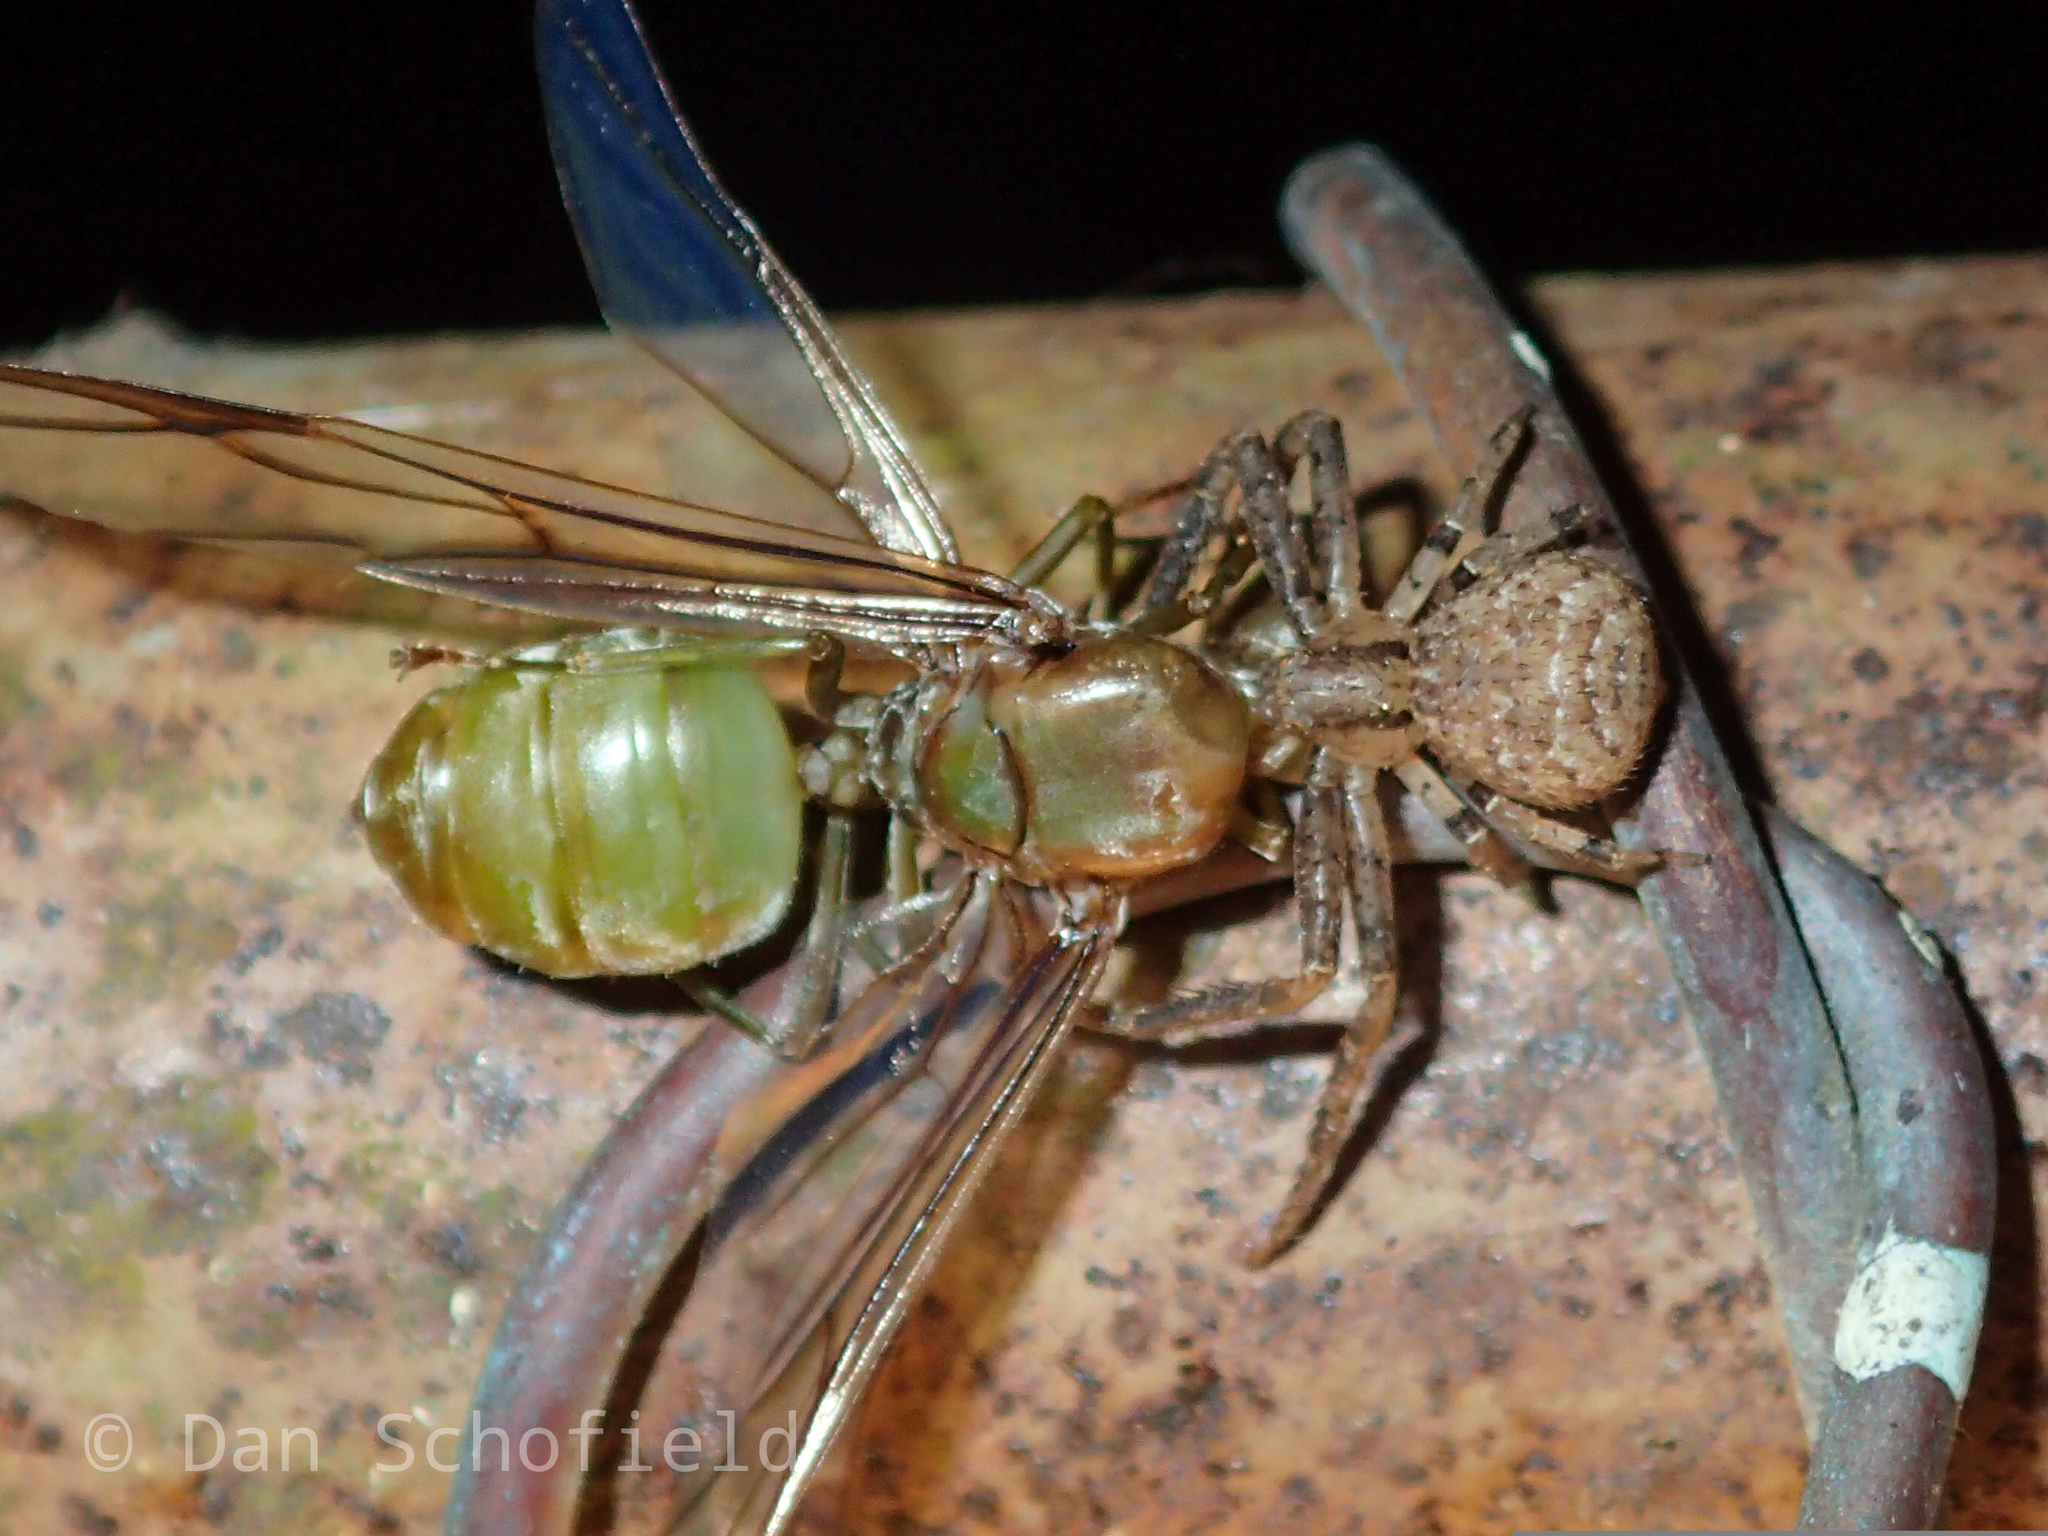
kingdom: Animalia
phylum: Arthropoda
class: Insecta
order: Hymenoptera
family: Formicidae
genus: Oecophylla
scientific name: Oecophylla smaragdina
